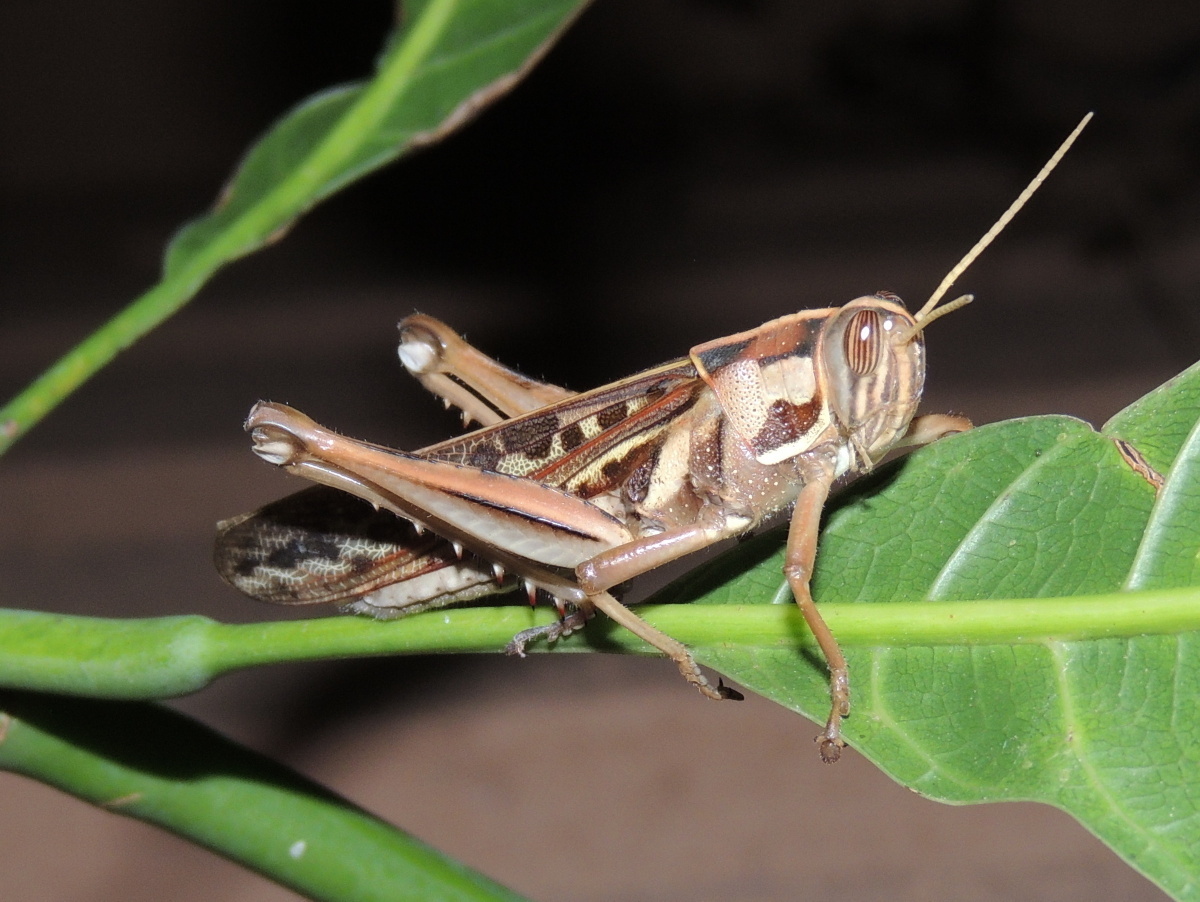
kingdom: Animalia
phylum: Arthropoda
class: Insecta
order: Orthoptera
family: Acrididae
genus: Cyrtacanthacris
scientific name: Cyrtacanthacris tatarica
